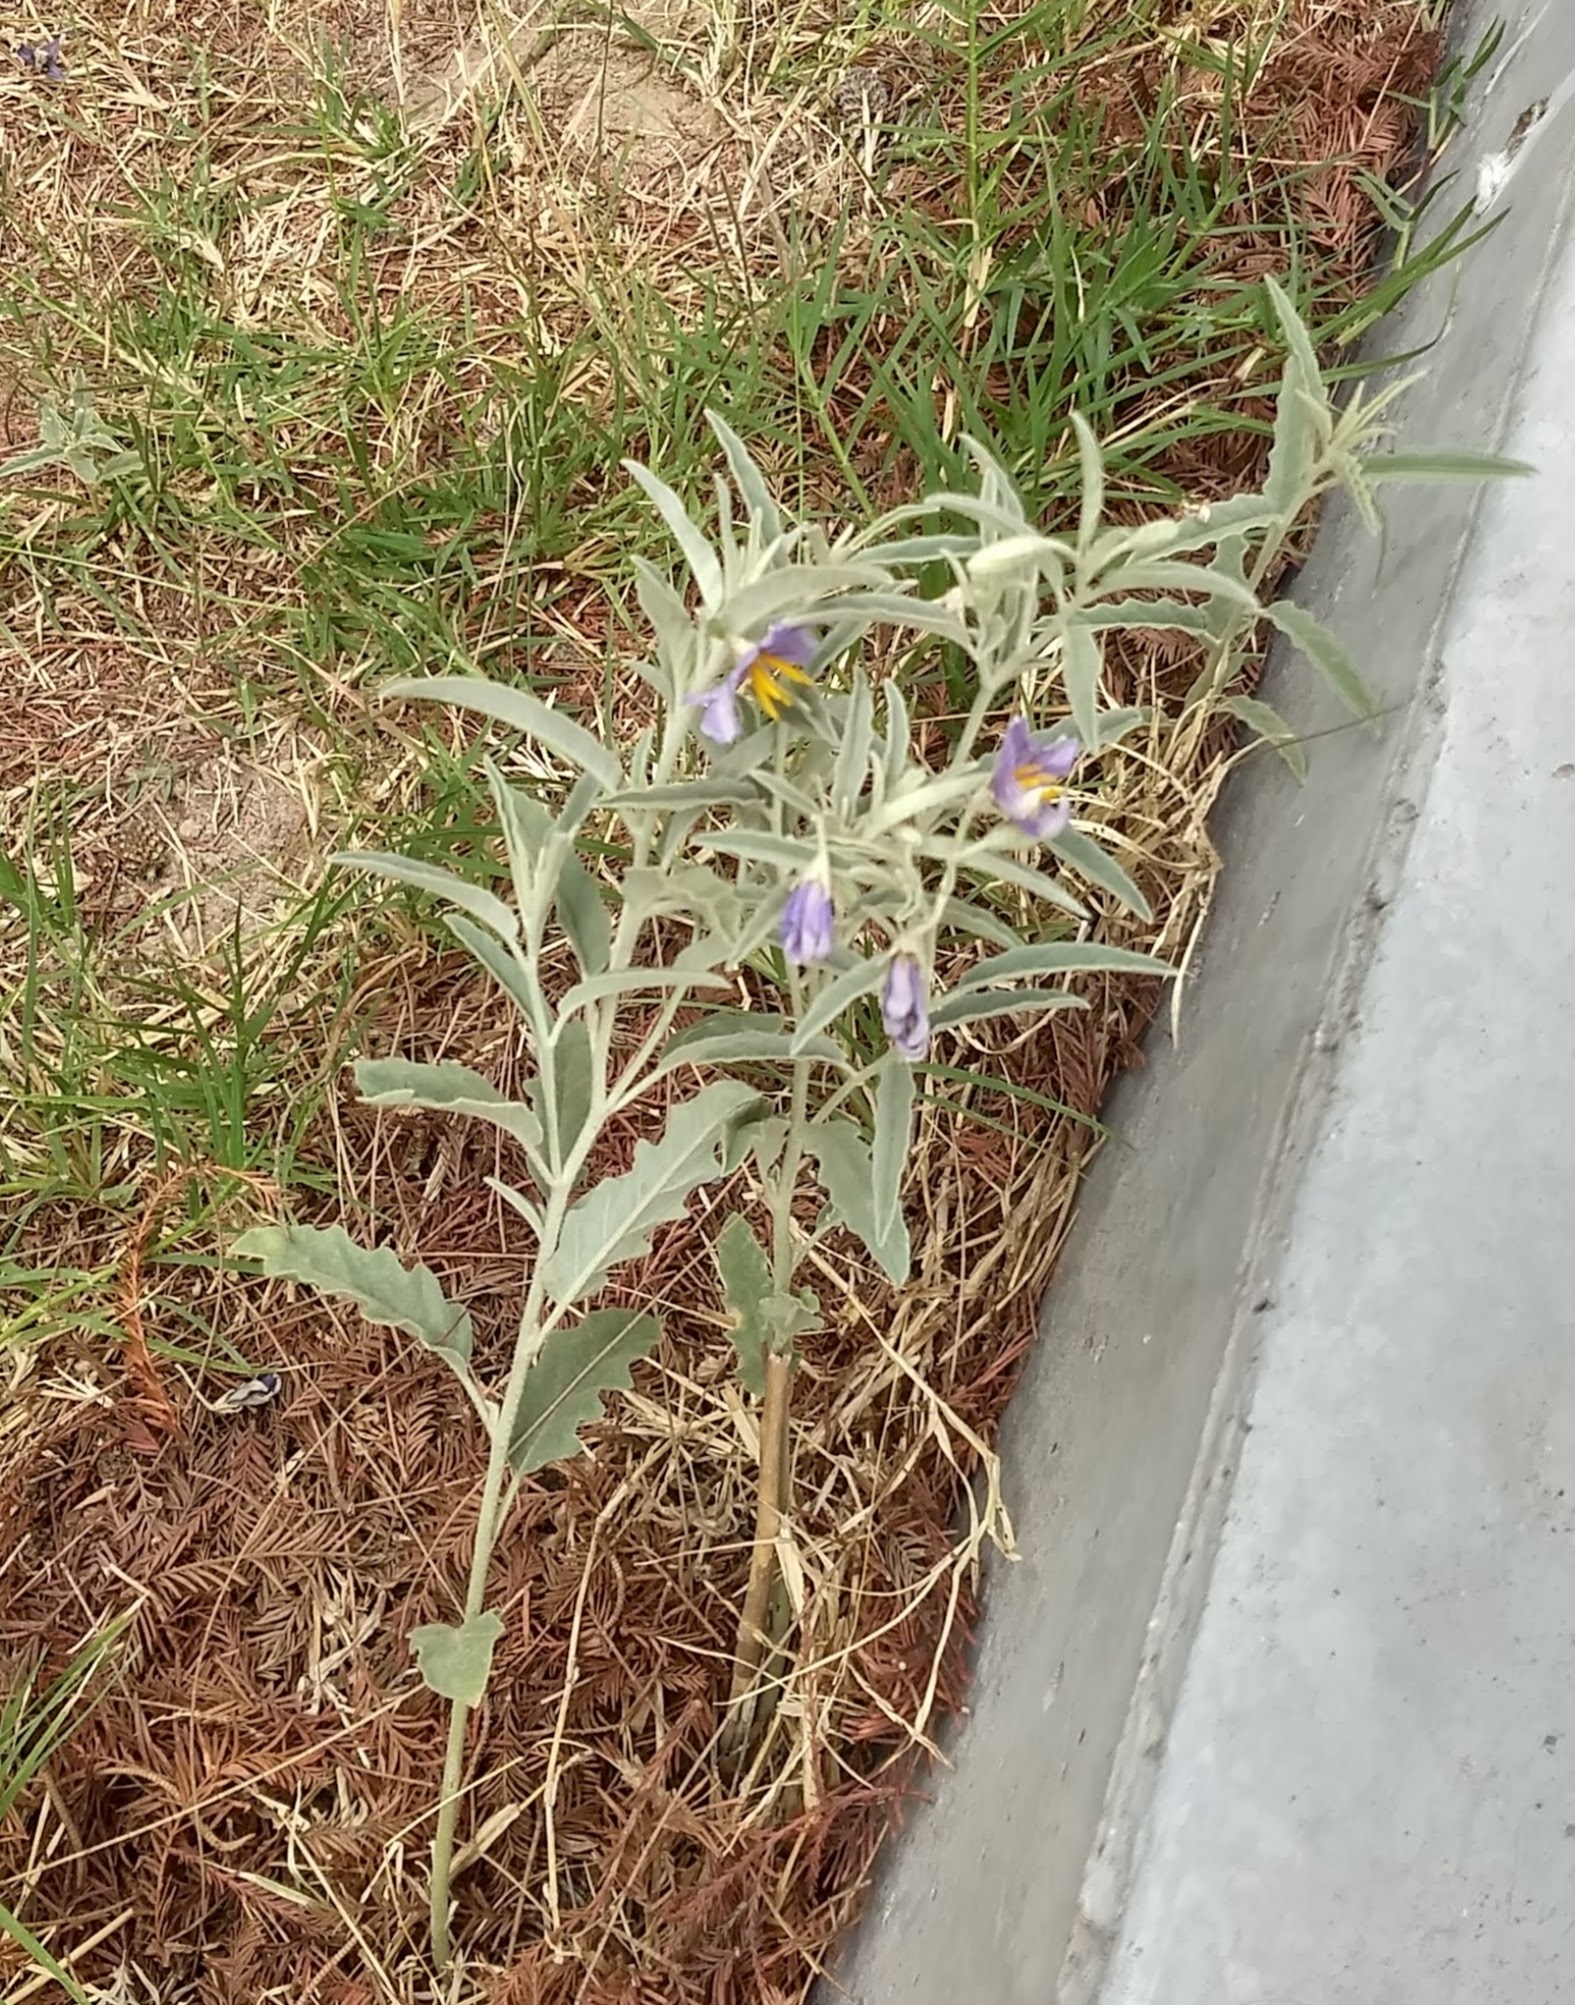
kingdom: Plantae
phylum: Tracheophyta
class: Magnoliopsida
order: Solanales
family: Solanaceae
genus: Solanum
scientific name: Solanum elaeagnifolium
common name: Silverleaf nightshade
